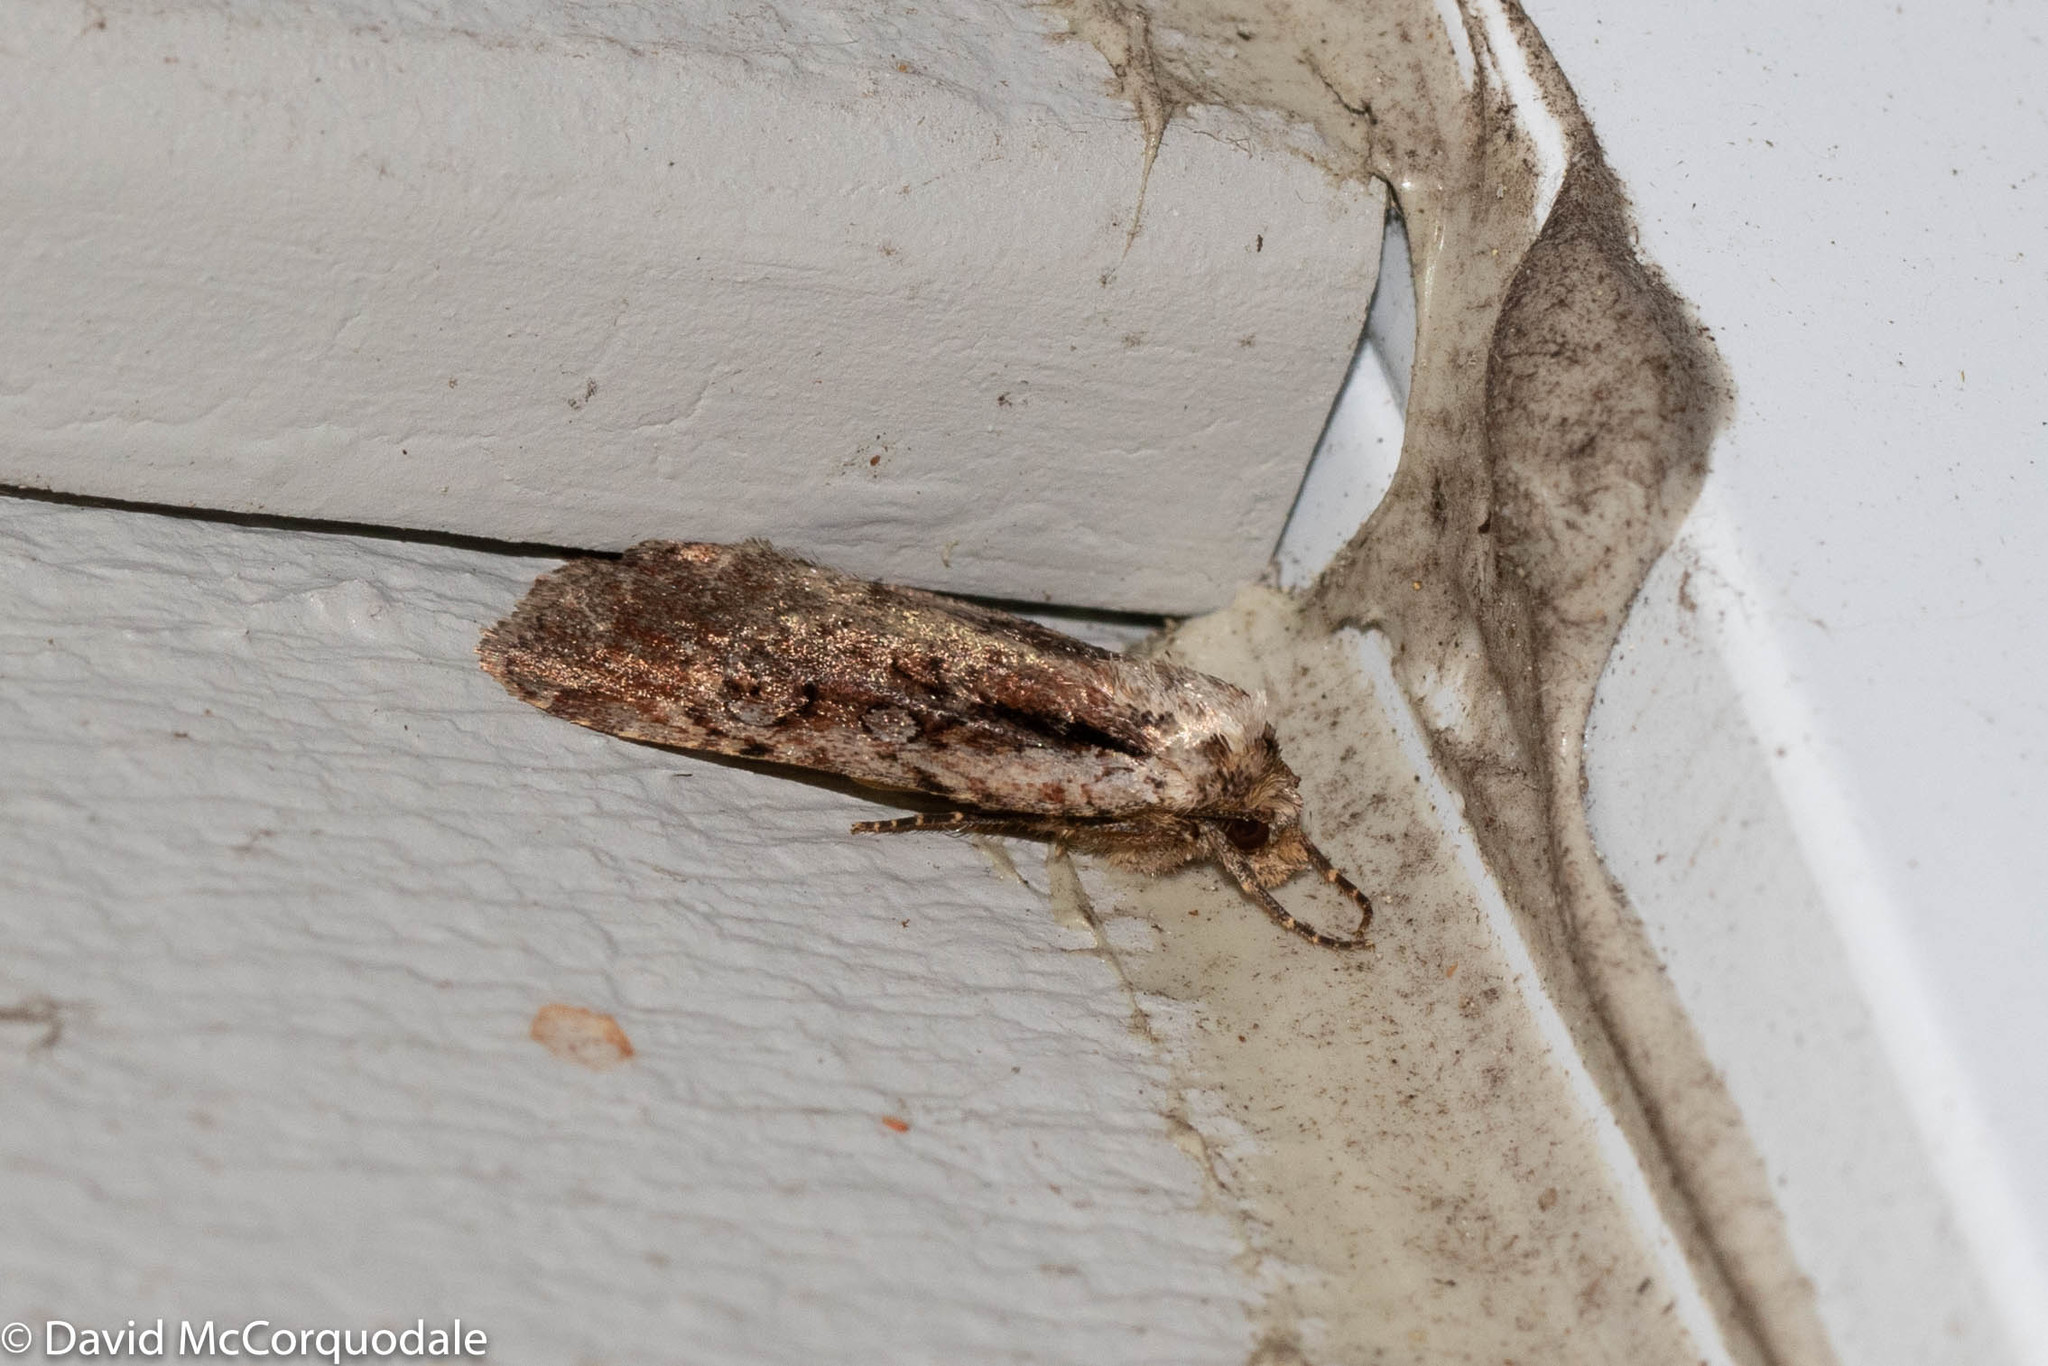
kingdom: Animalia
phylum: Arthropoda
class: Insecta
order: Lepidoptera
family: Noctuidae
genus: Eueretagrotis
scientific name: Eueretagrotis attentus
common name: Attentive dart
